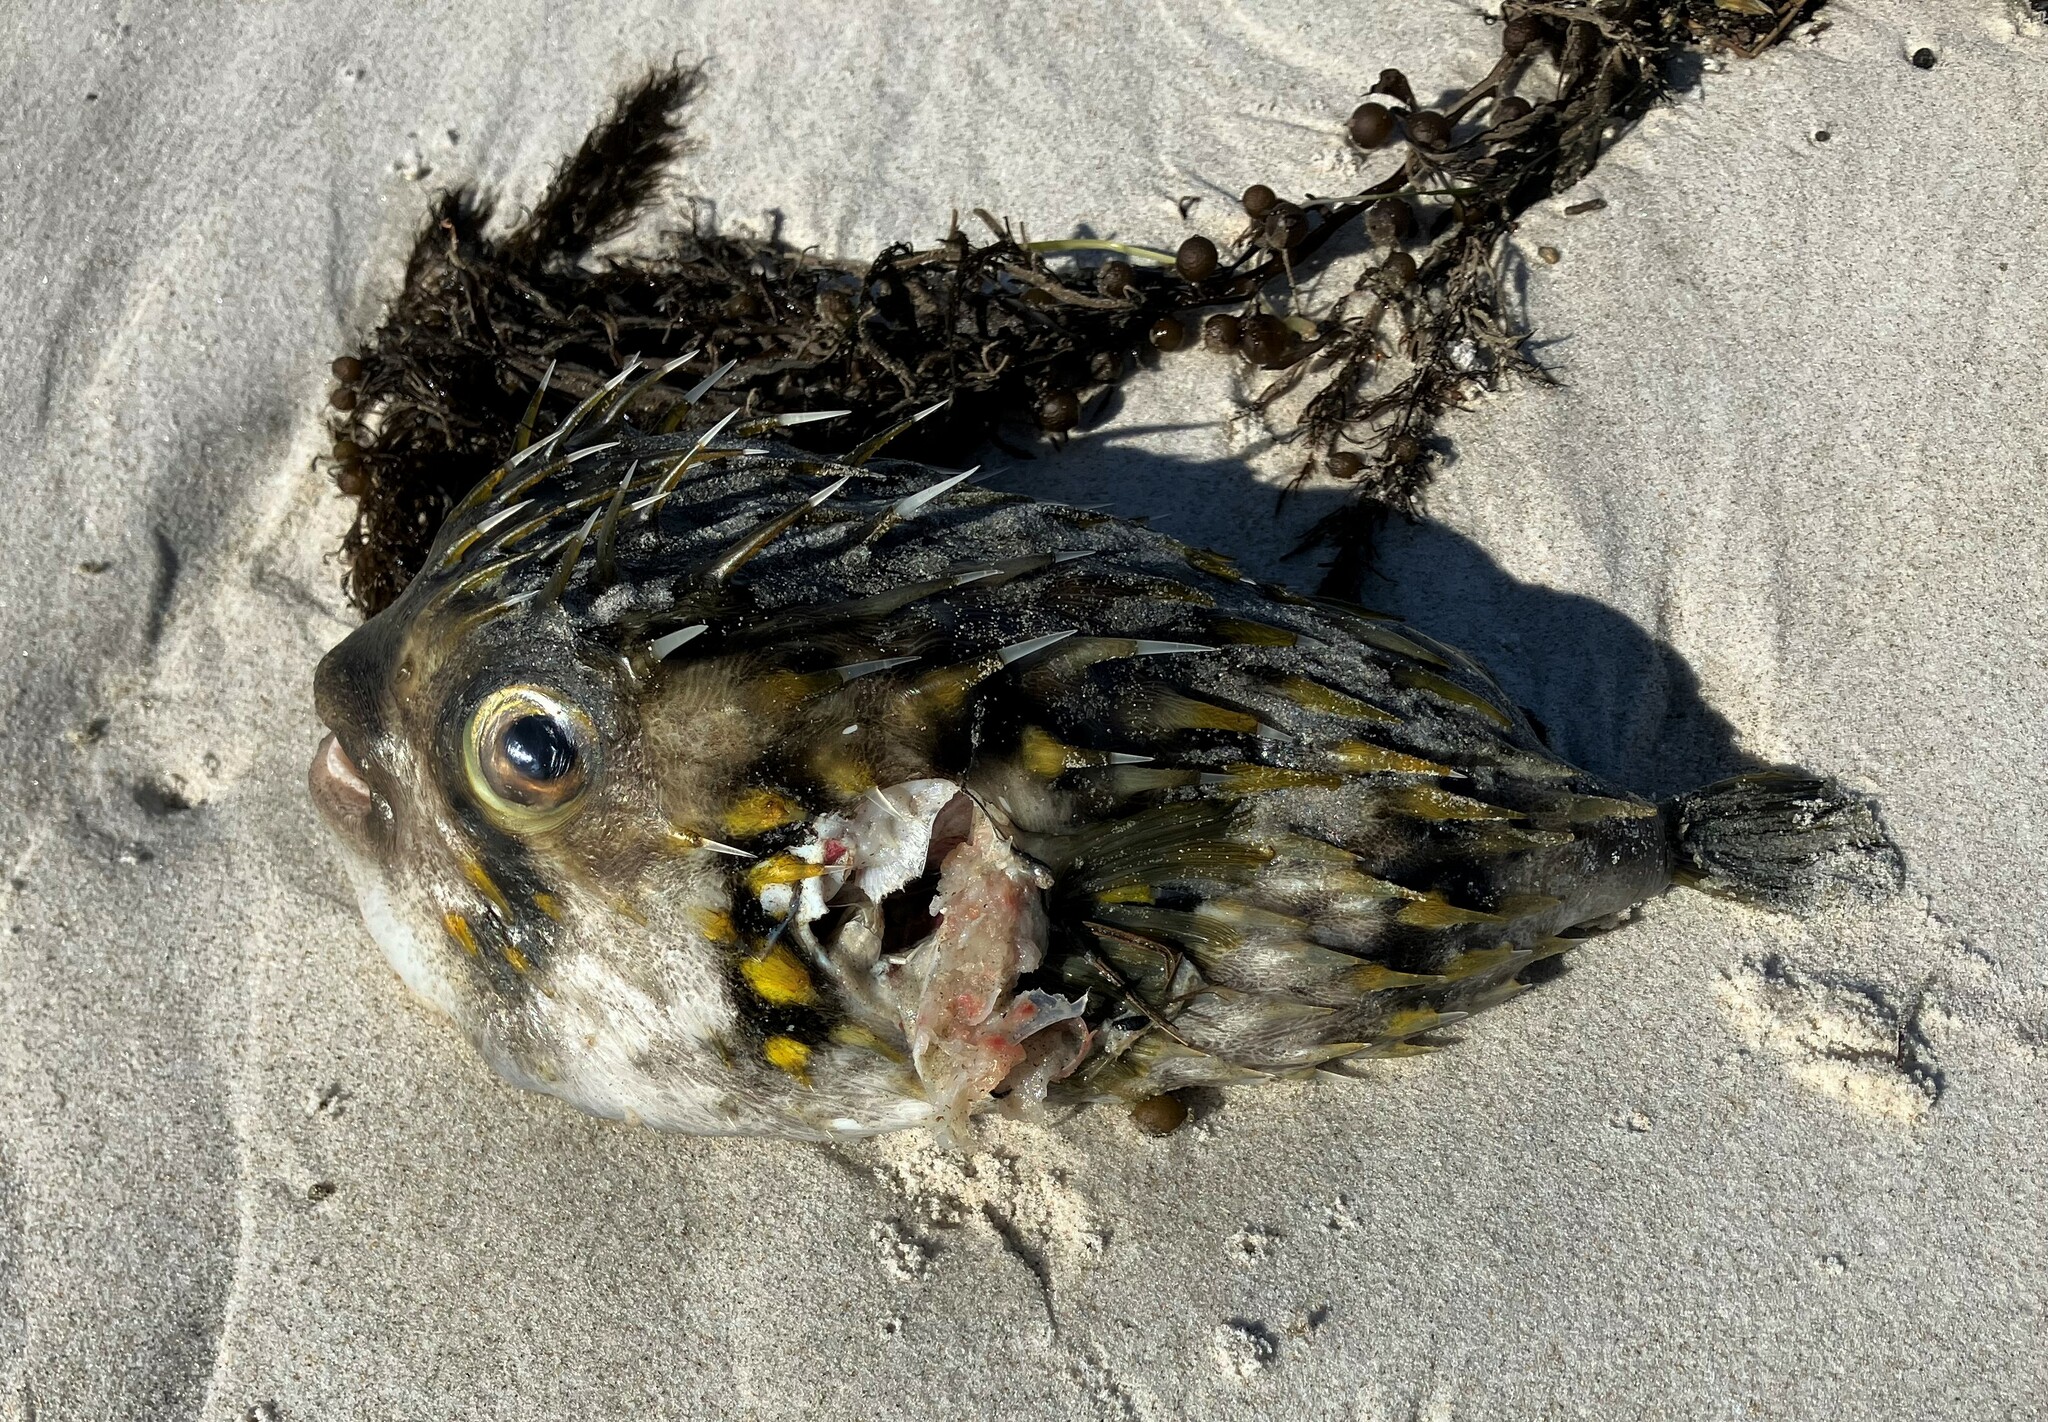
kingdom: Animalia
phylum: Chordata
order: Tetraodontiformes
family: Diodontidae
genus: Diodon
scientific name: Diodon nicthemerus
